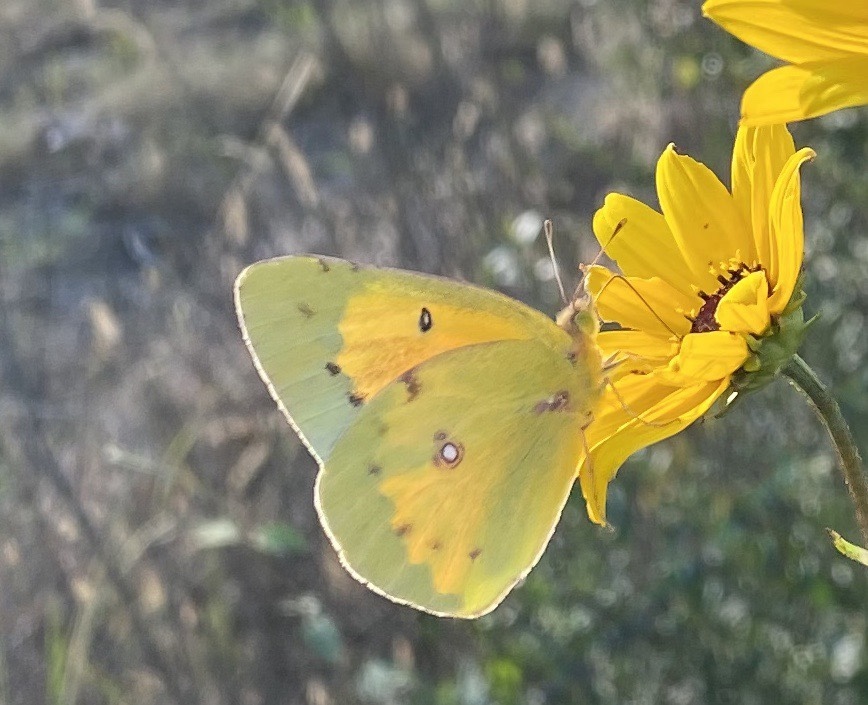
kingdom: Animalia
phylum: Arthropoda
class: Insecta
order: Lepidoptera
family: Pieridae
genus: Colias
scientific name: Colias eurytheme
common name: Alfalfa butterfly
